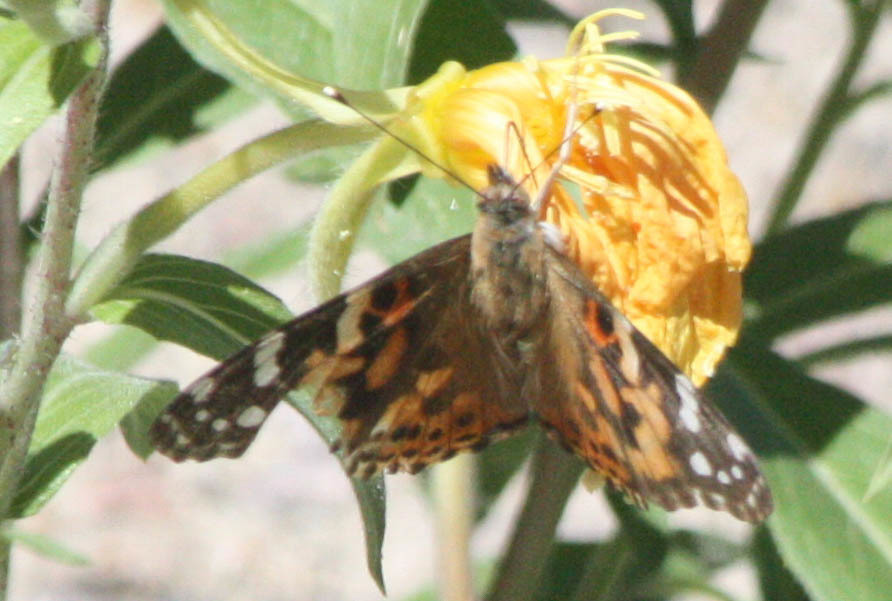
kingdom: Animalia
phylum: Arthropoda
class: Insecta
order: Lepidoptera
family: Nymphalidae
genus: Vanessa
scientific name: Vanessa cardui
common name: Painted lady
